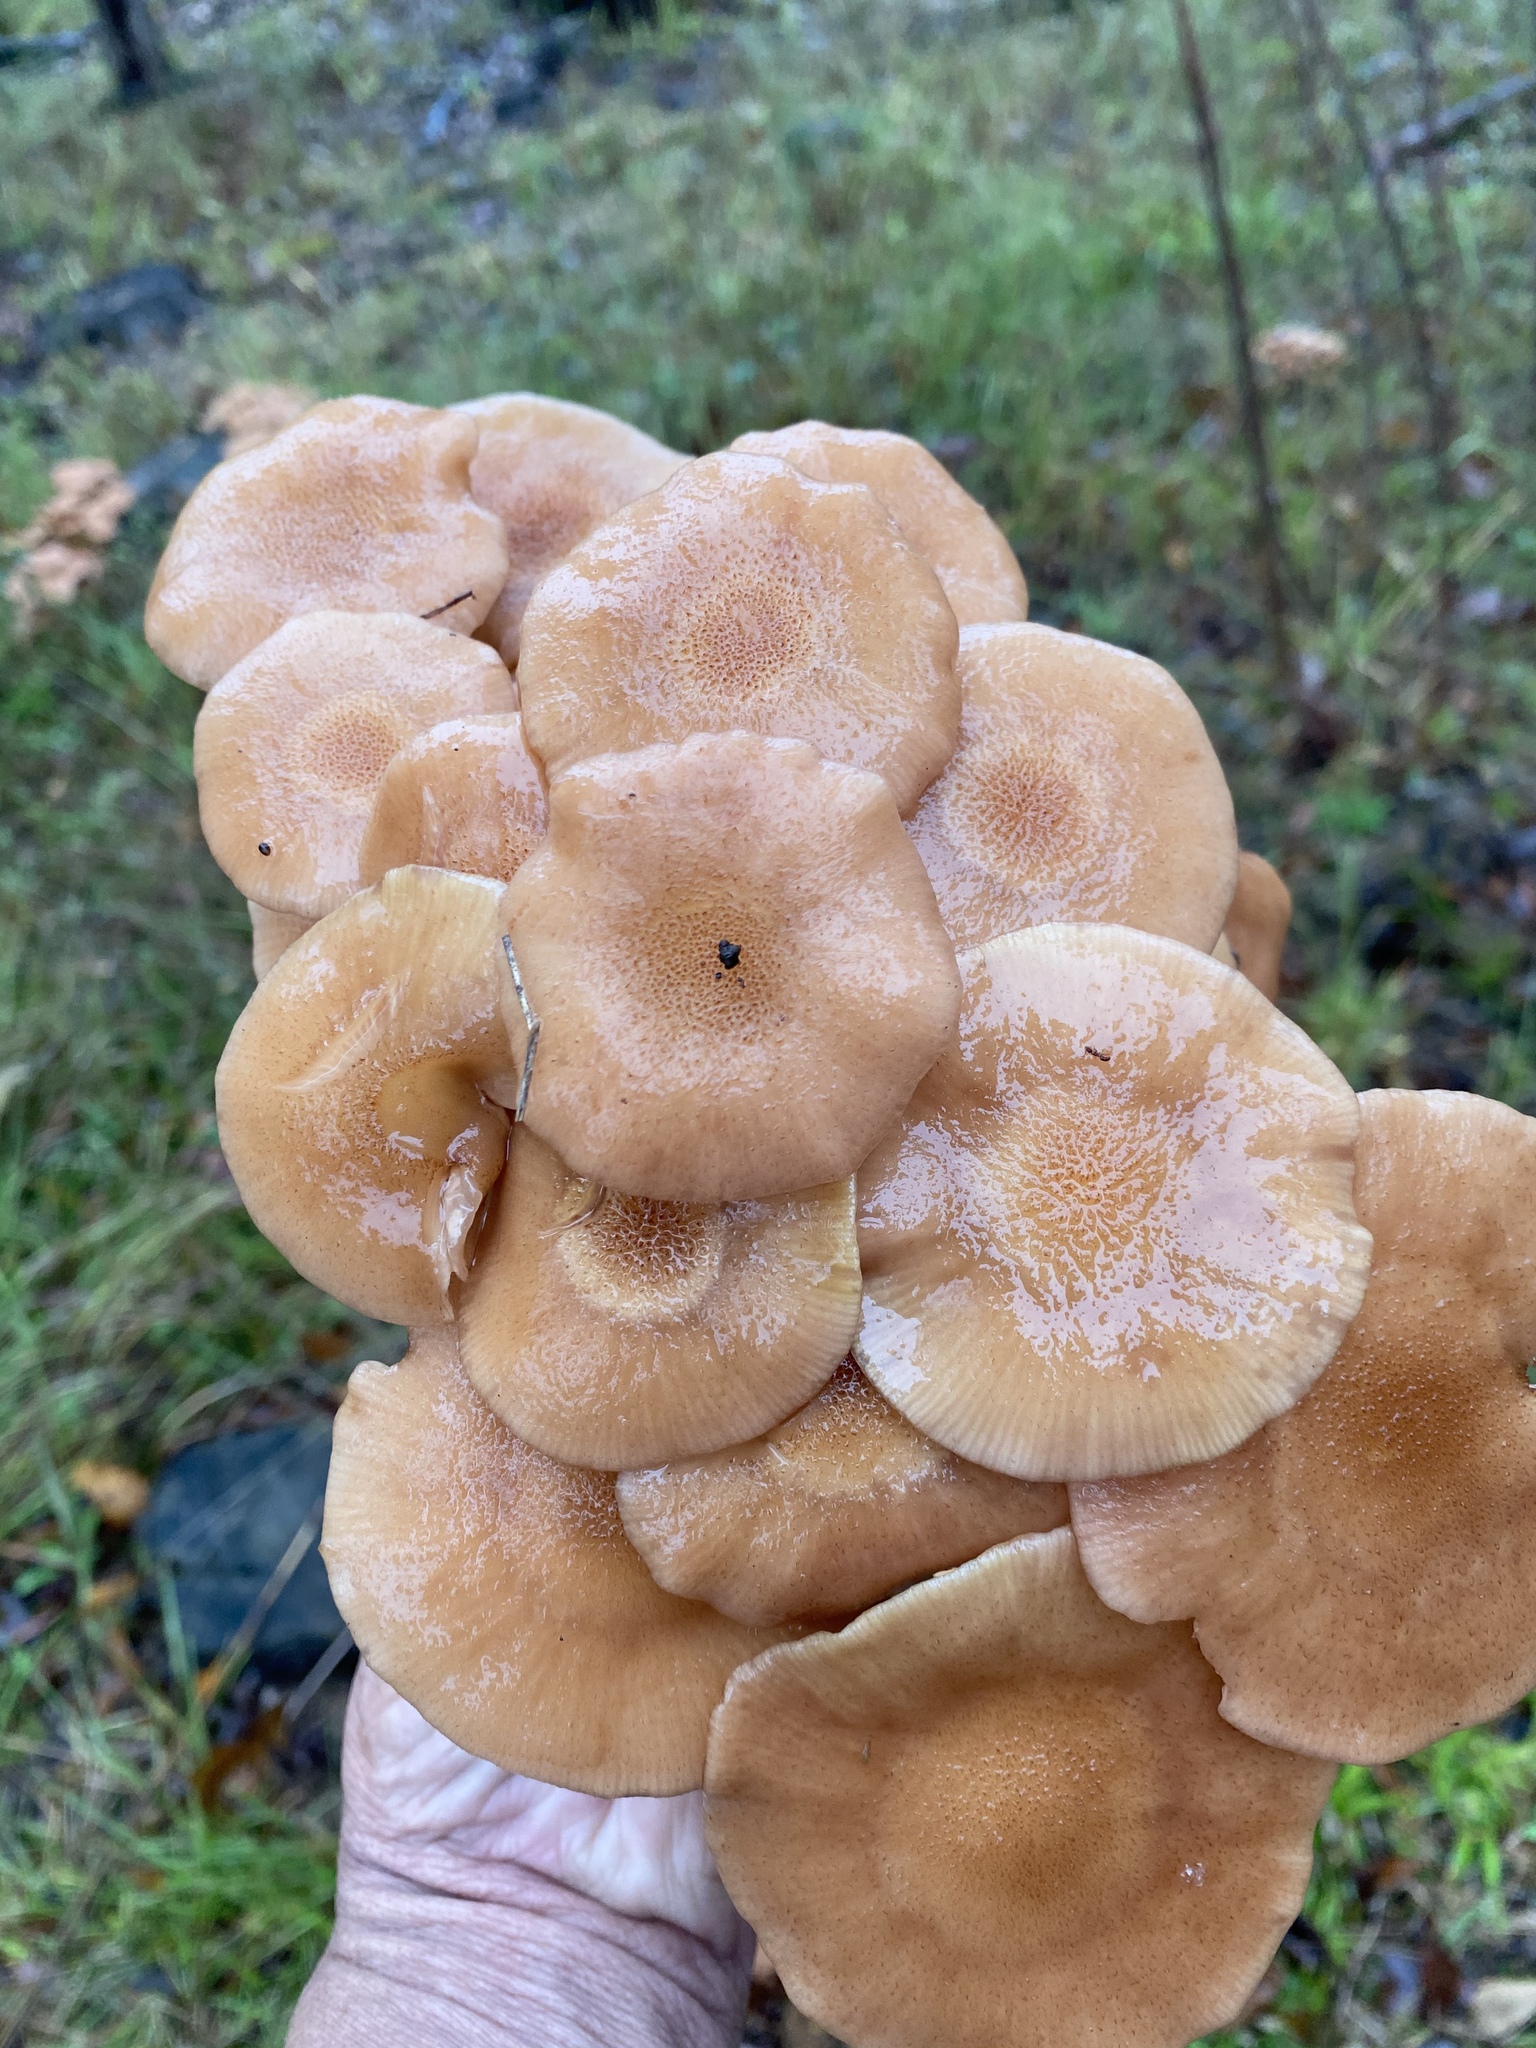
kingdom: Fungi
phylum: Basidiomycota
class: Agaricomycetes
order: Agaricales
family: Physalacriaceae
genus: Desarmillaria
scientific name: Desarmillaria caespitosa
